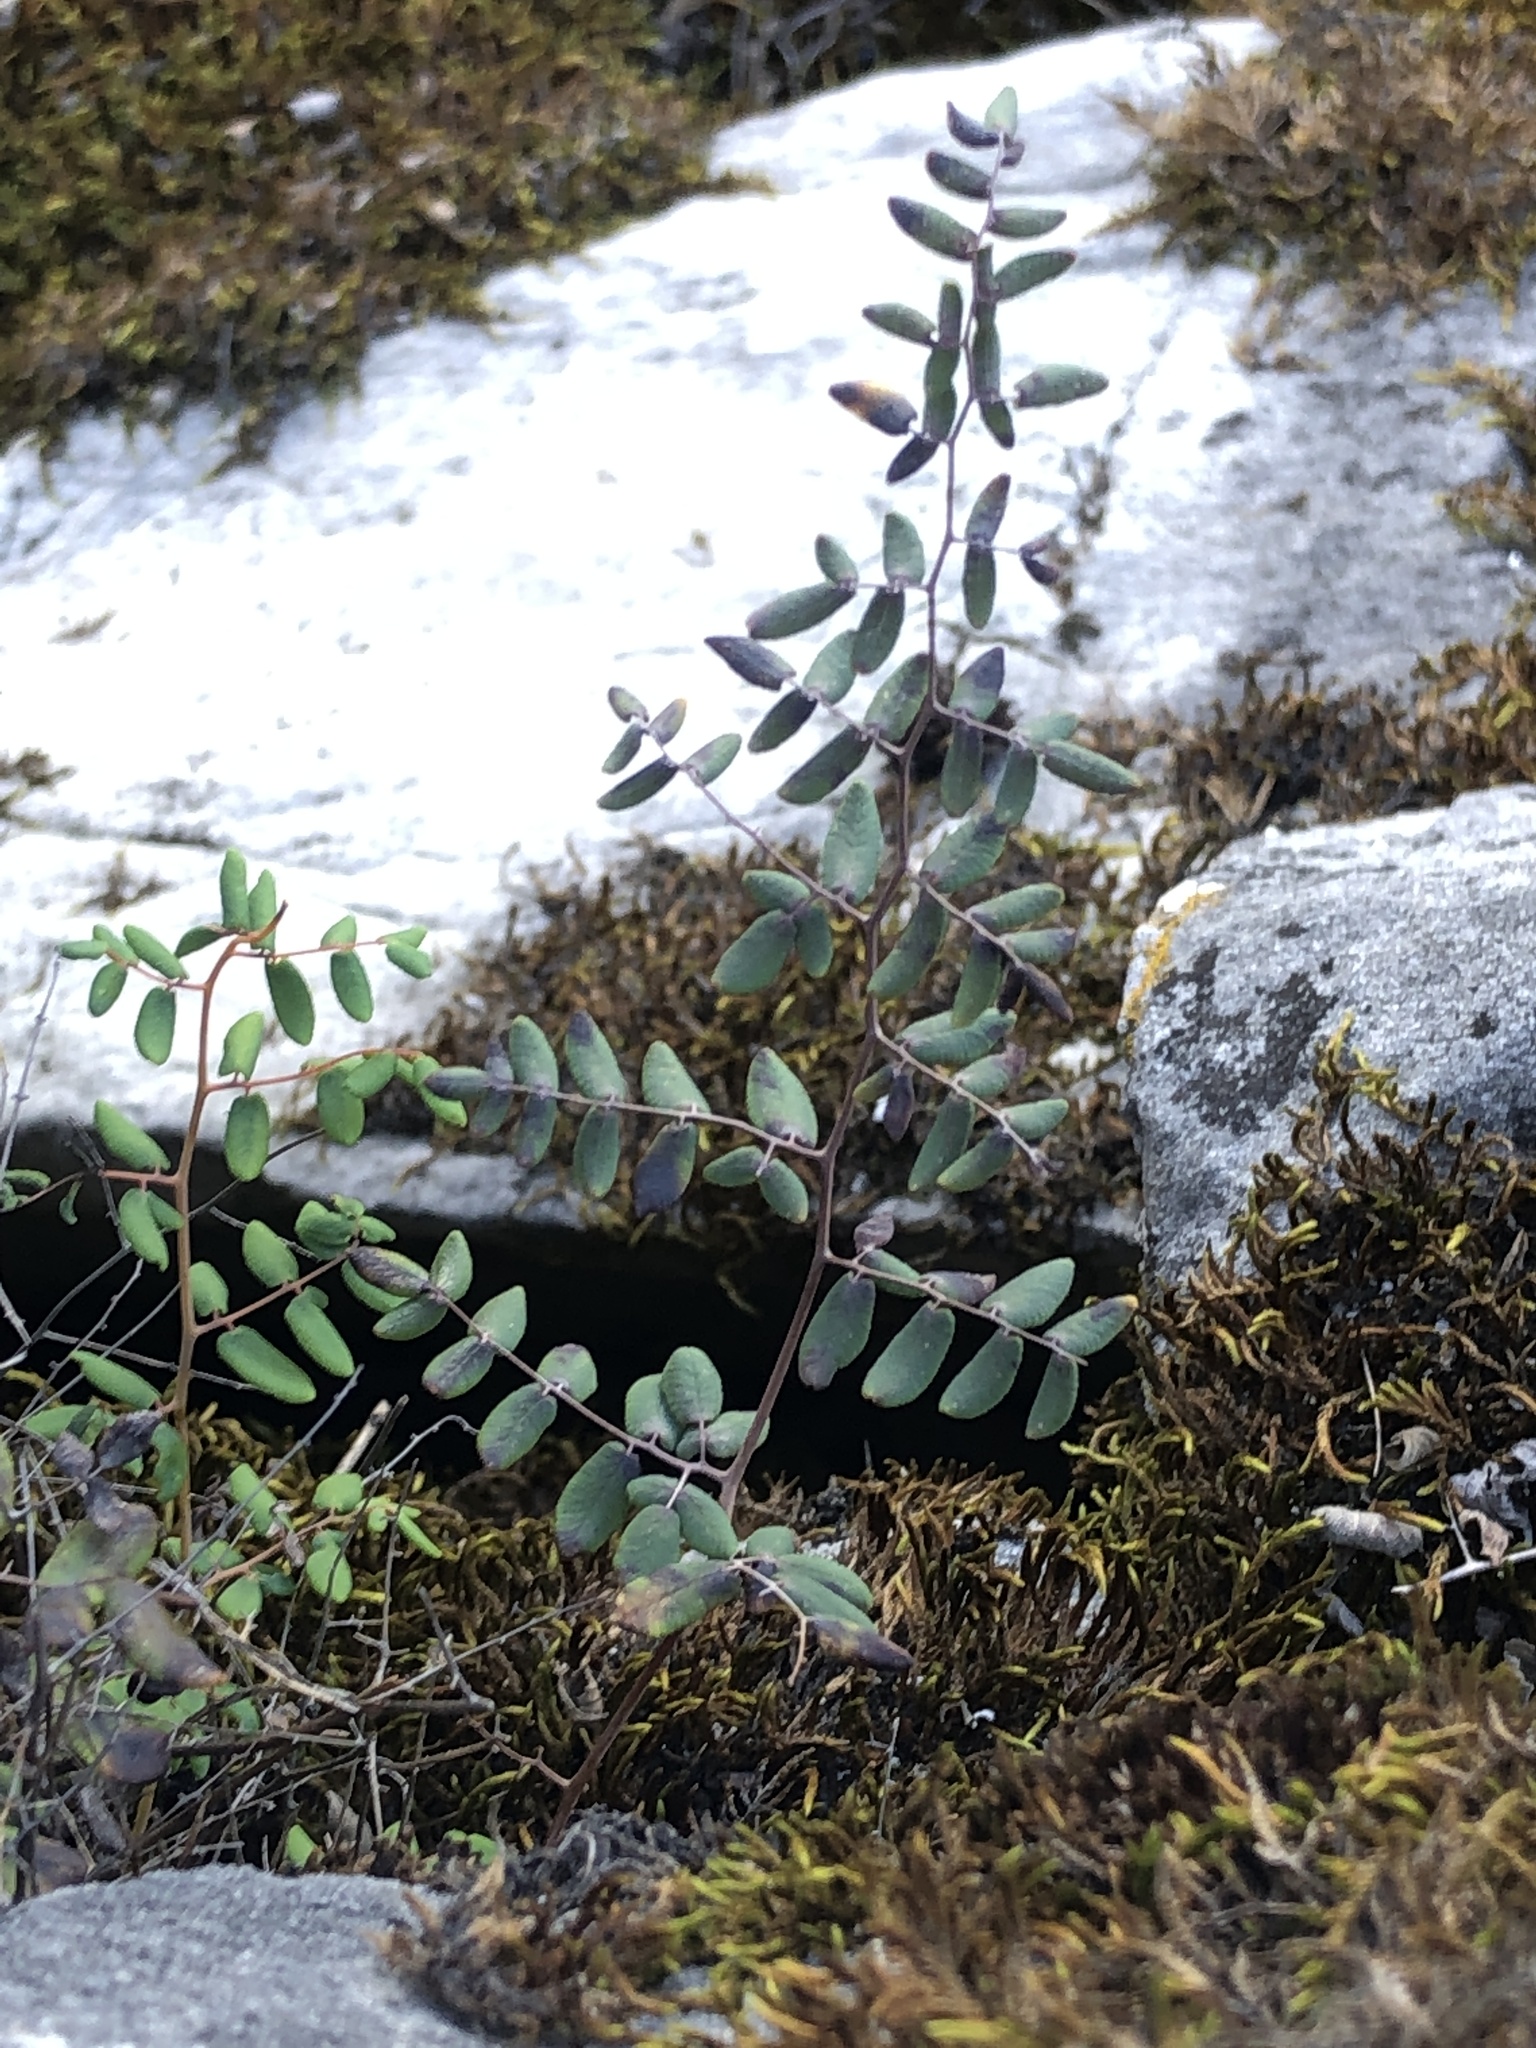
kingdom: Plantae
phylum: Tracheophyta
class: Polypodiopsida
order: Polypodiales
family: Pteridaceae
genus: Pellaea
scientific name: Pellaea andromedifolia
